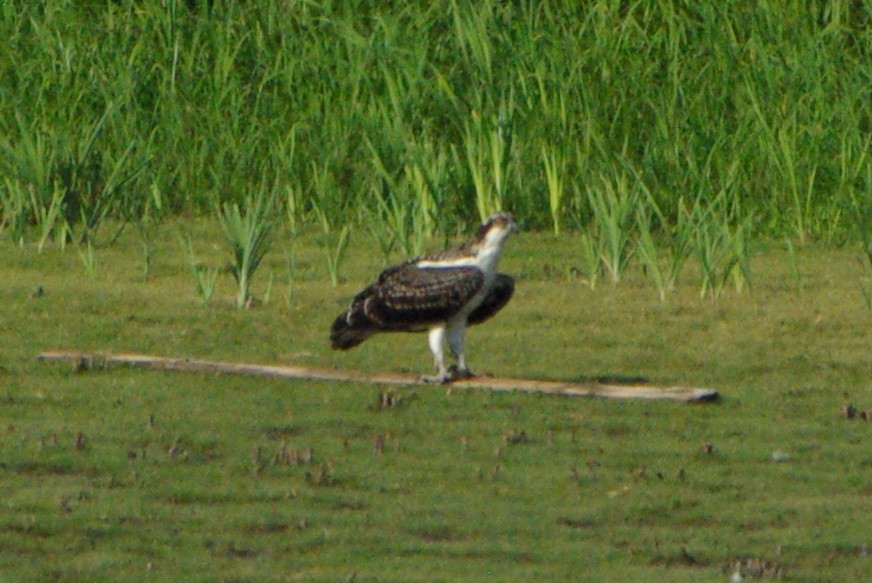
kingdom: Animalia
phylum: Chordata
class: Aves
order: Accipitriformes
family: Pandionidae
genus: Pandion
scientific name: Pandion haliaetus
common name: Osprey
